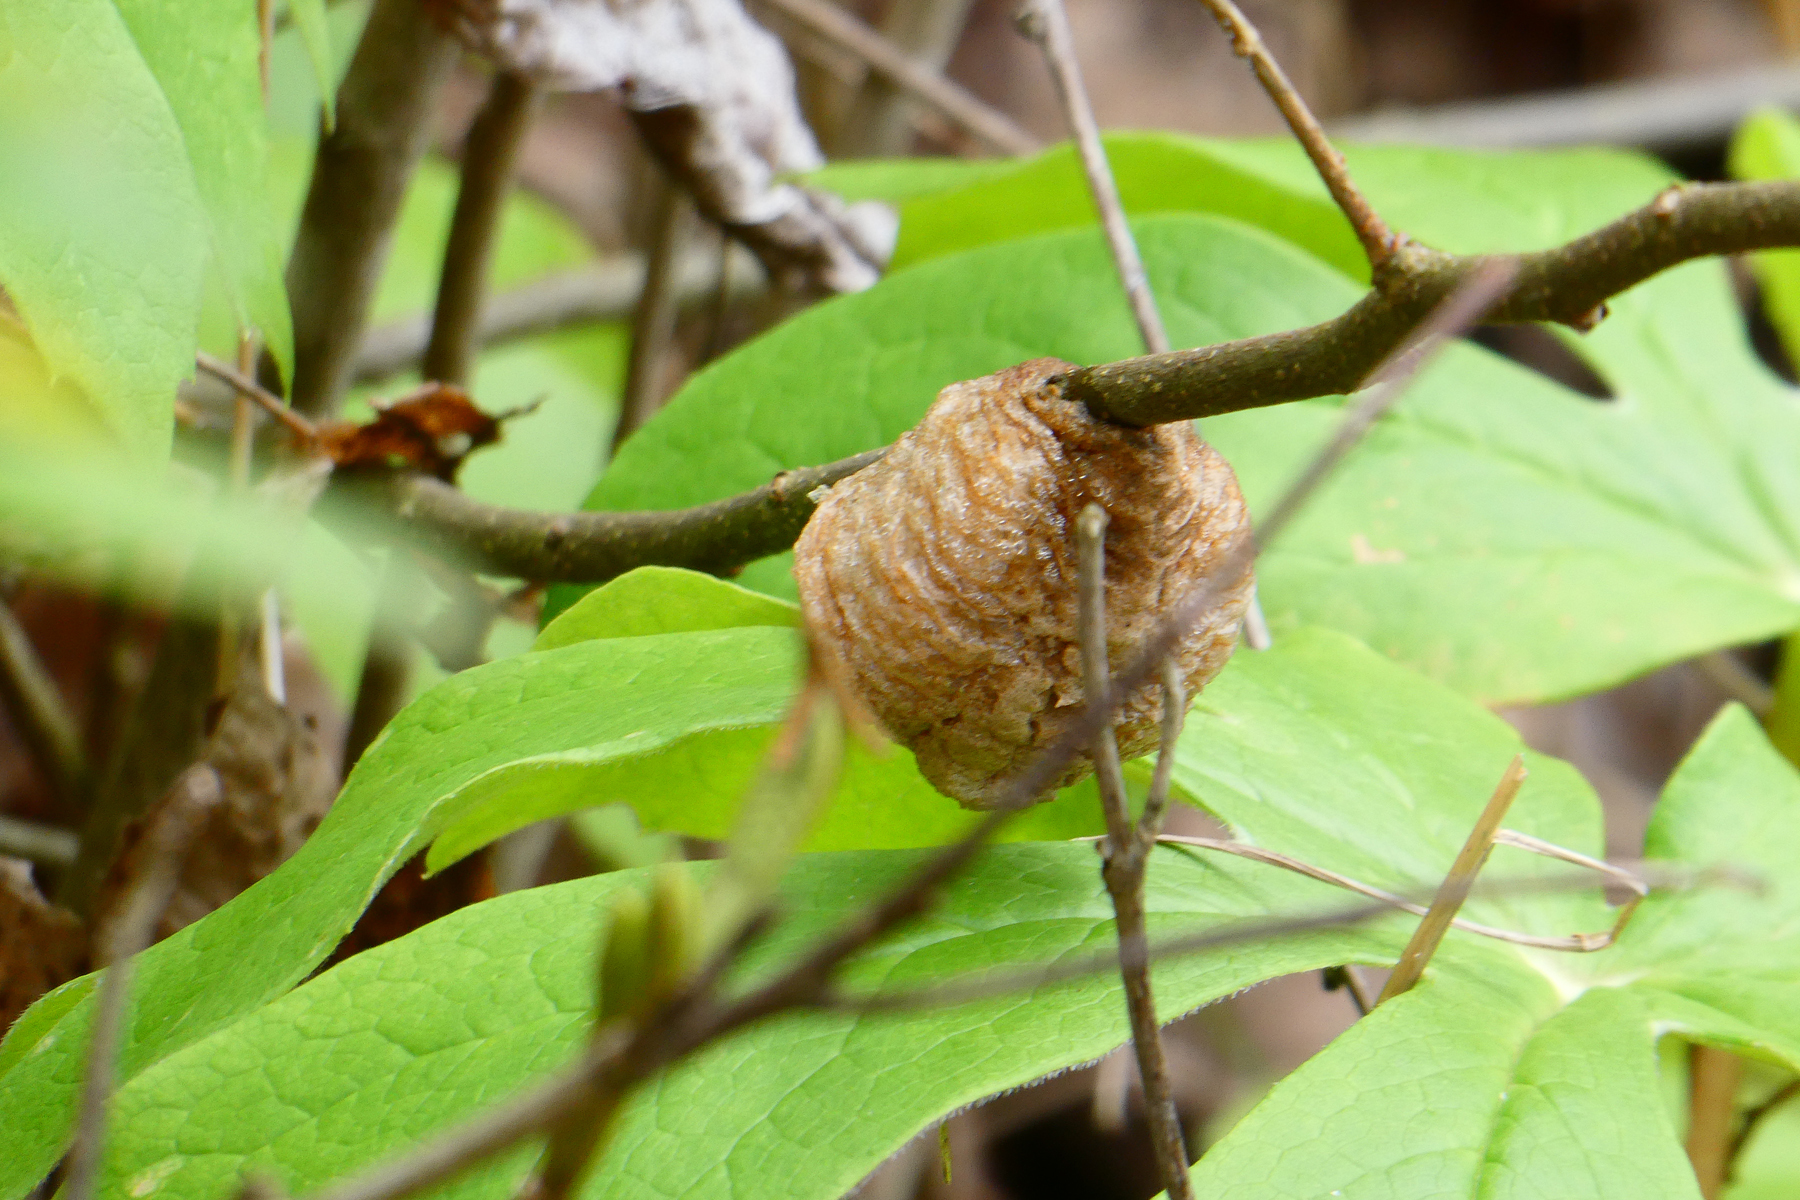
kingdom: Animalia
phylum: Arthropoda
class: Insecta
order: Mantodea
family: Mantidae
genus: Tenodera
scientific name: Tenodera sinensis
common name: Chinese mantis
